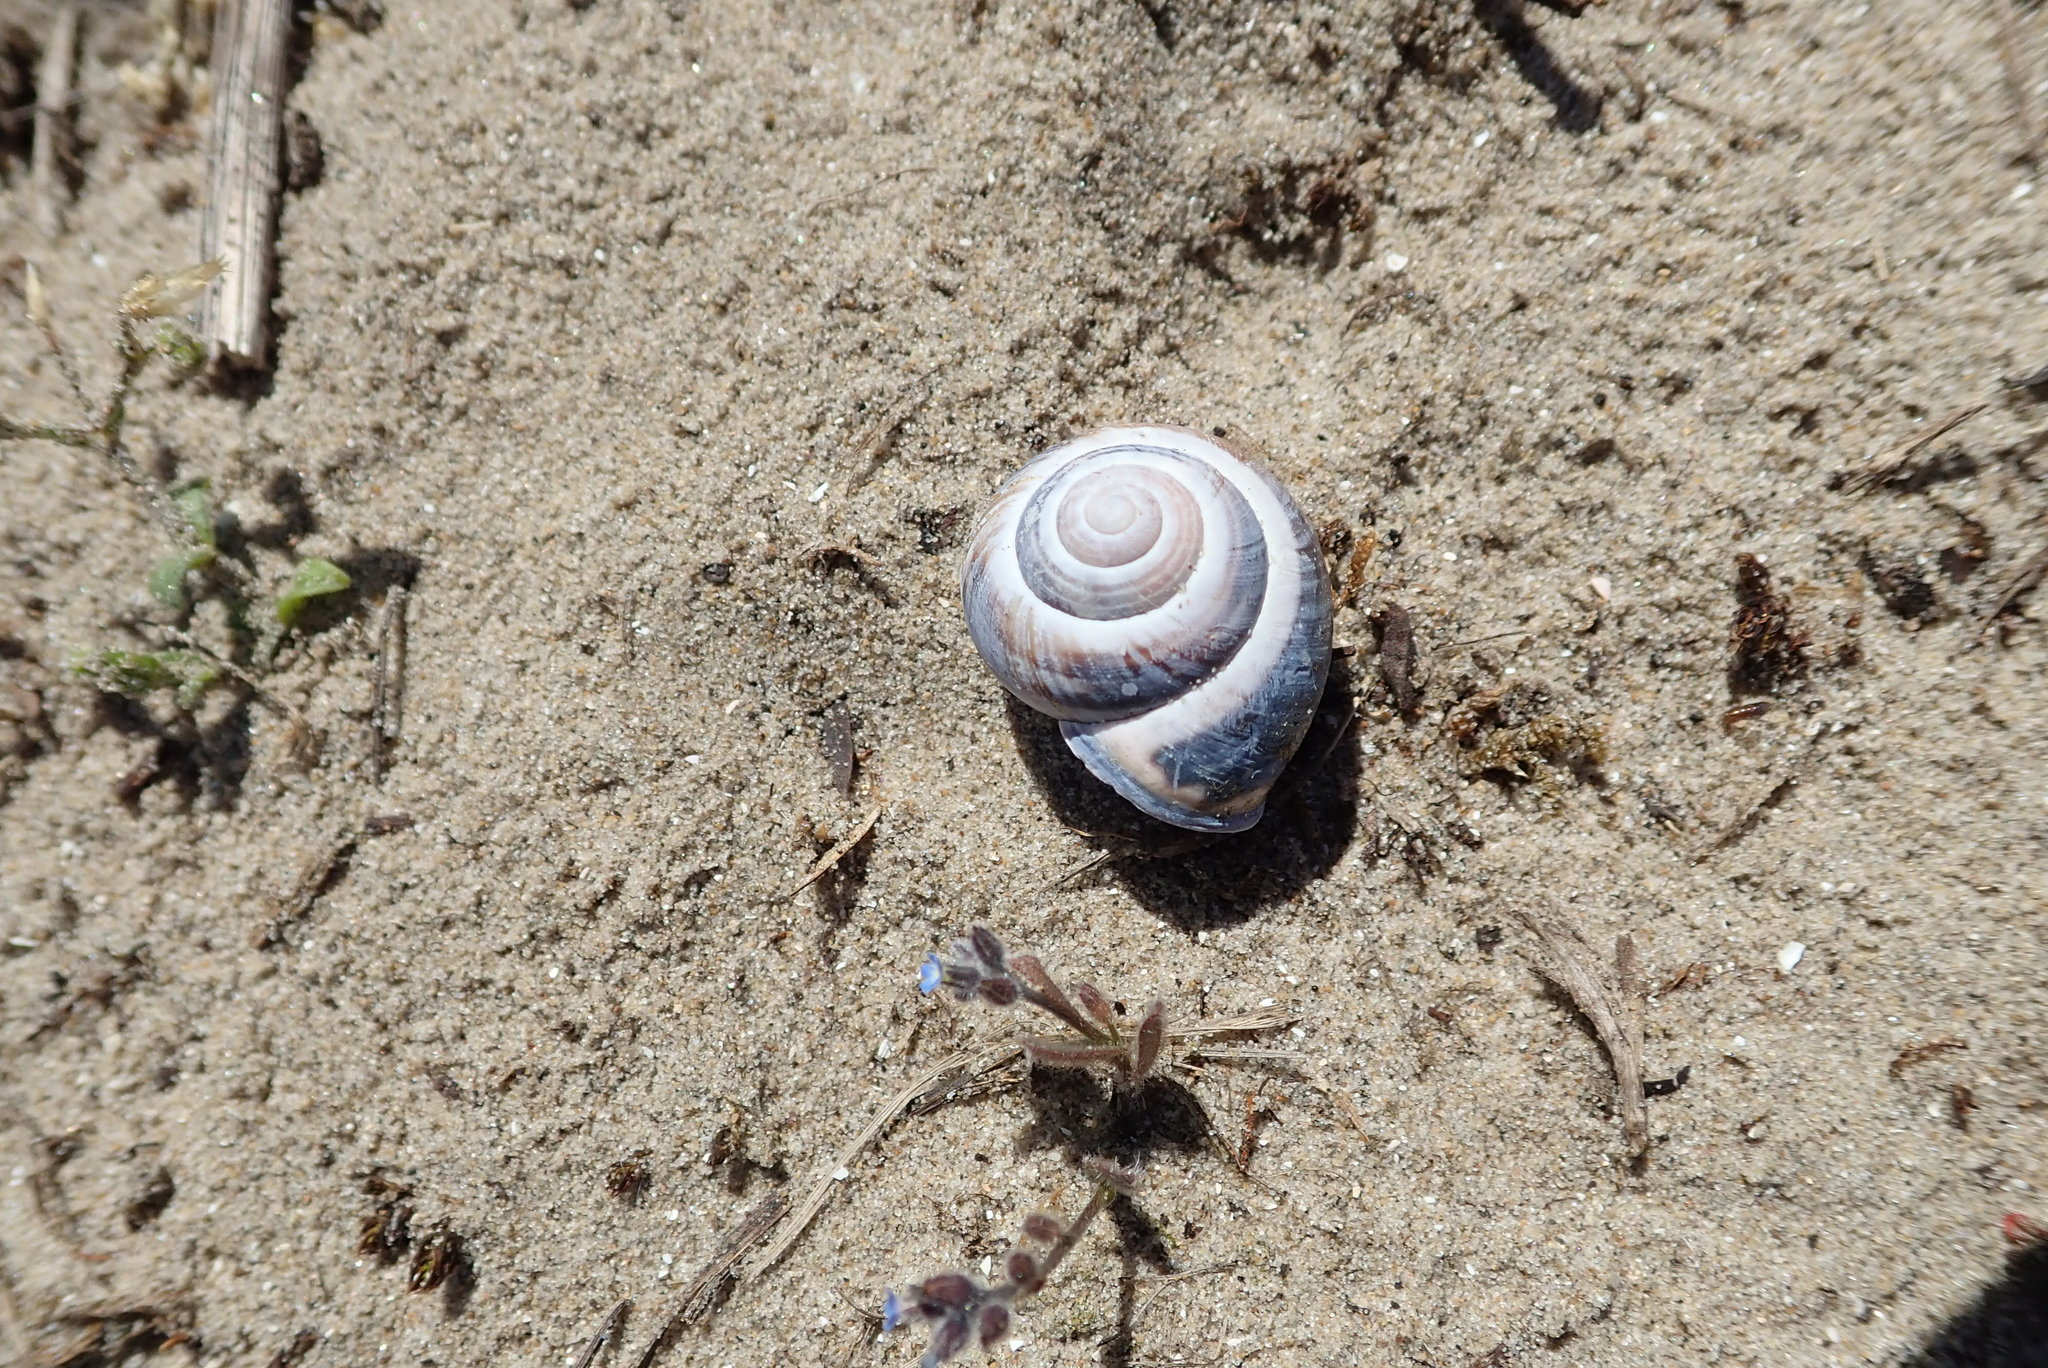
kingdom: Animalia
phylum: Mollusca
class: Gastropoda
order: Stylommatophora
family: Helicidae
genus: Cepaea
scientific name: Cepaea nemoralis
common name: Grovesnail
